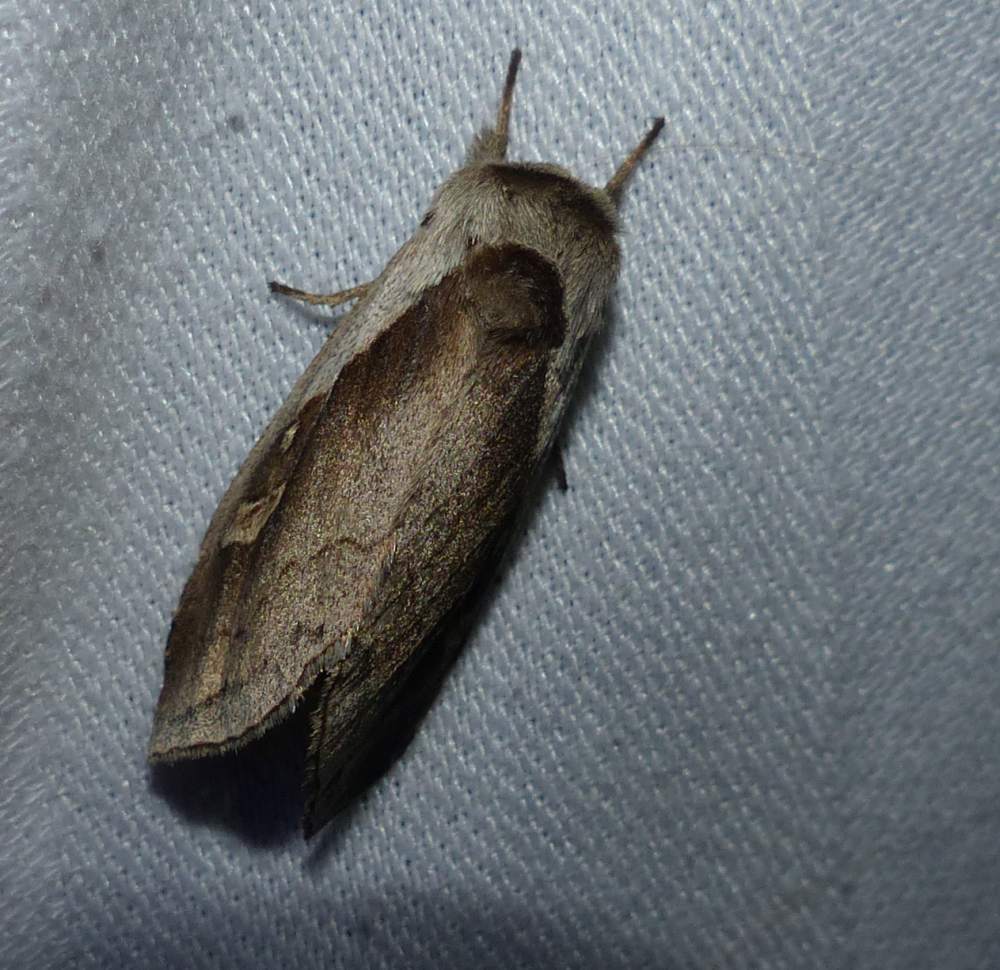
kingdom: Animalia
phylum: Arthropoda
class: Insecta
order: Lepidoptera
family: Noctuidae
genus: Bellura
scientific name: Bellura obliqua
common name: Cattail borer moth
